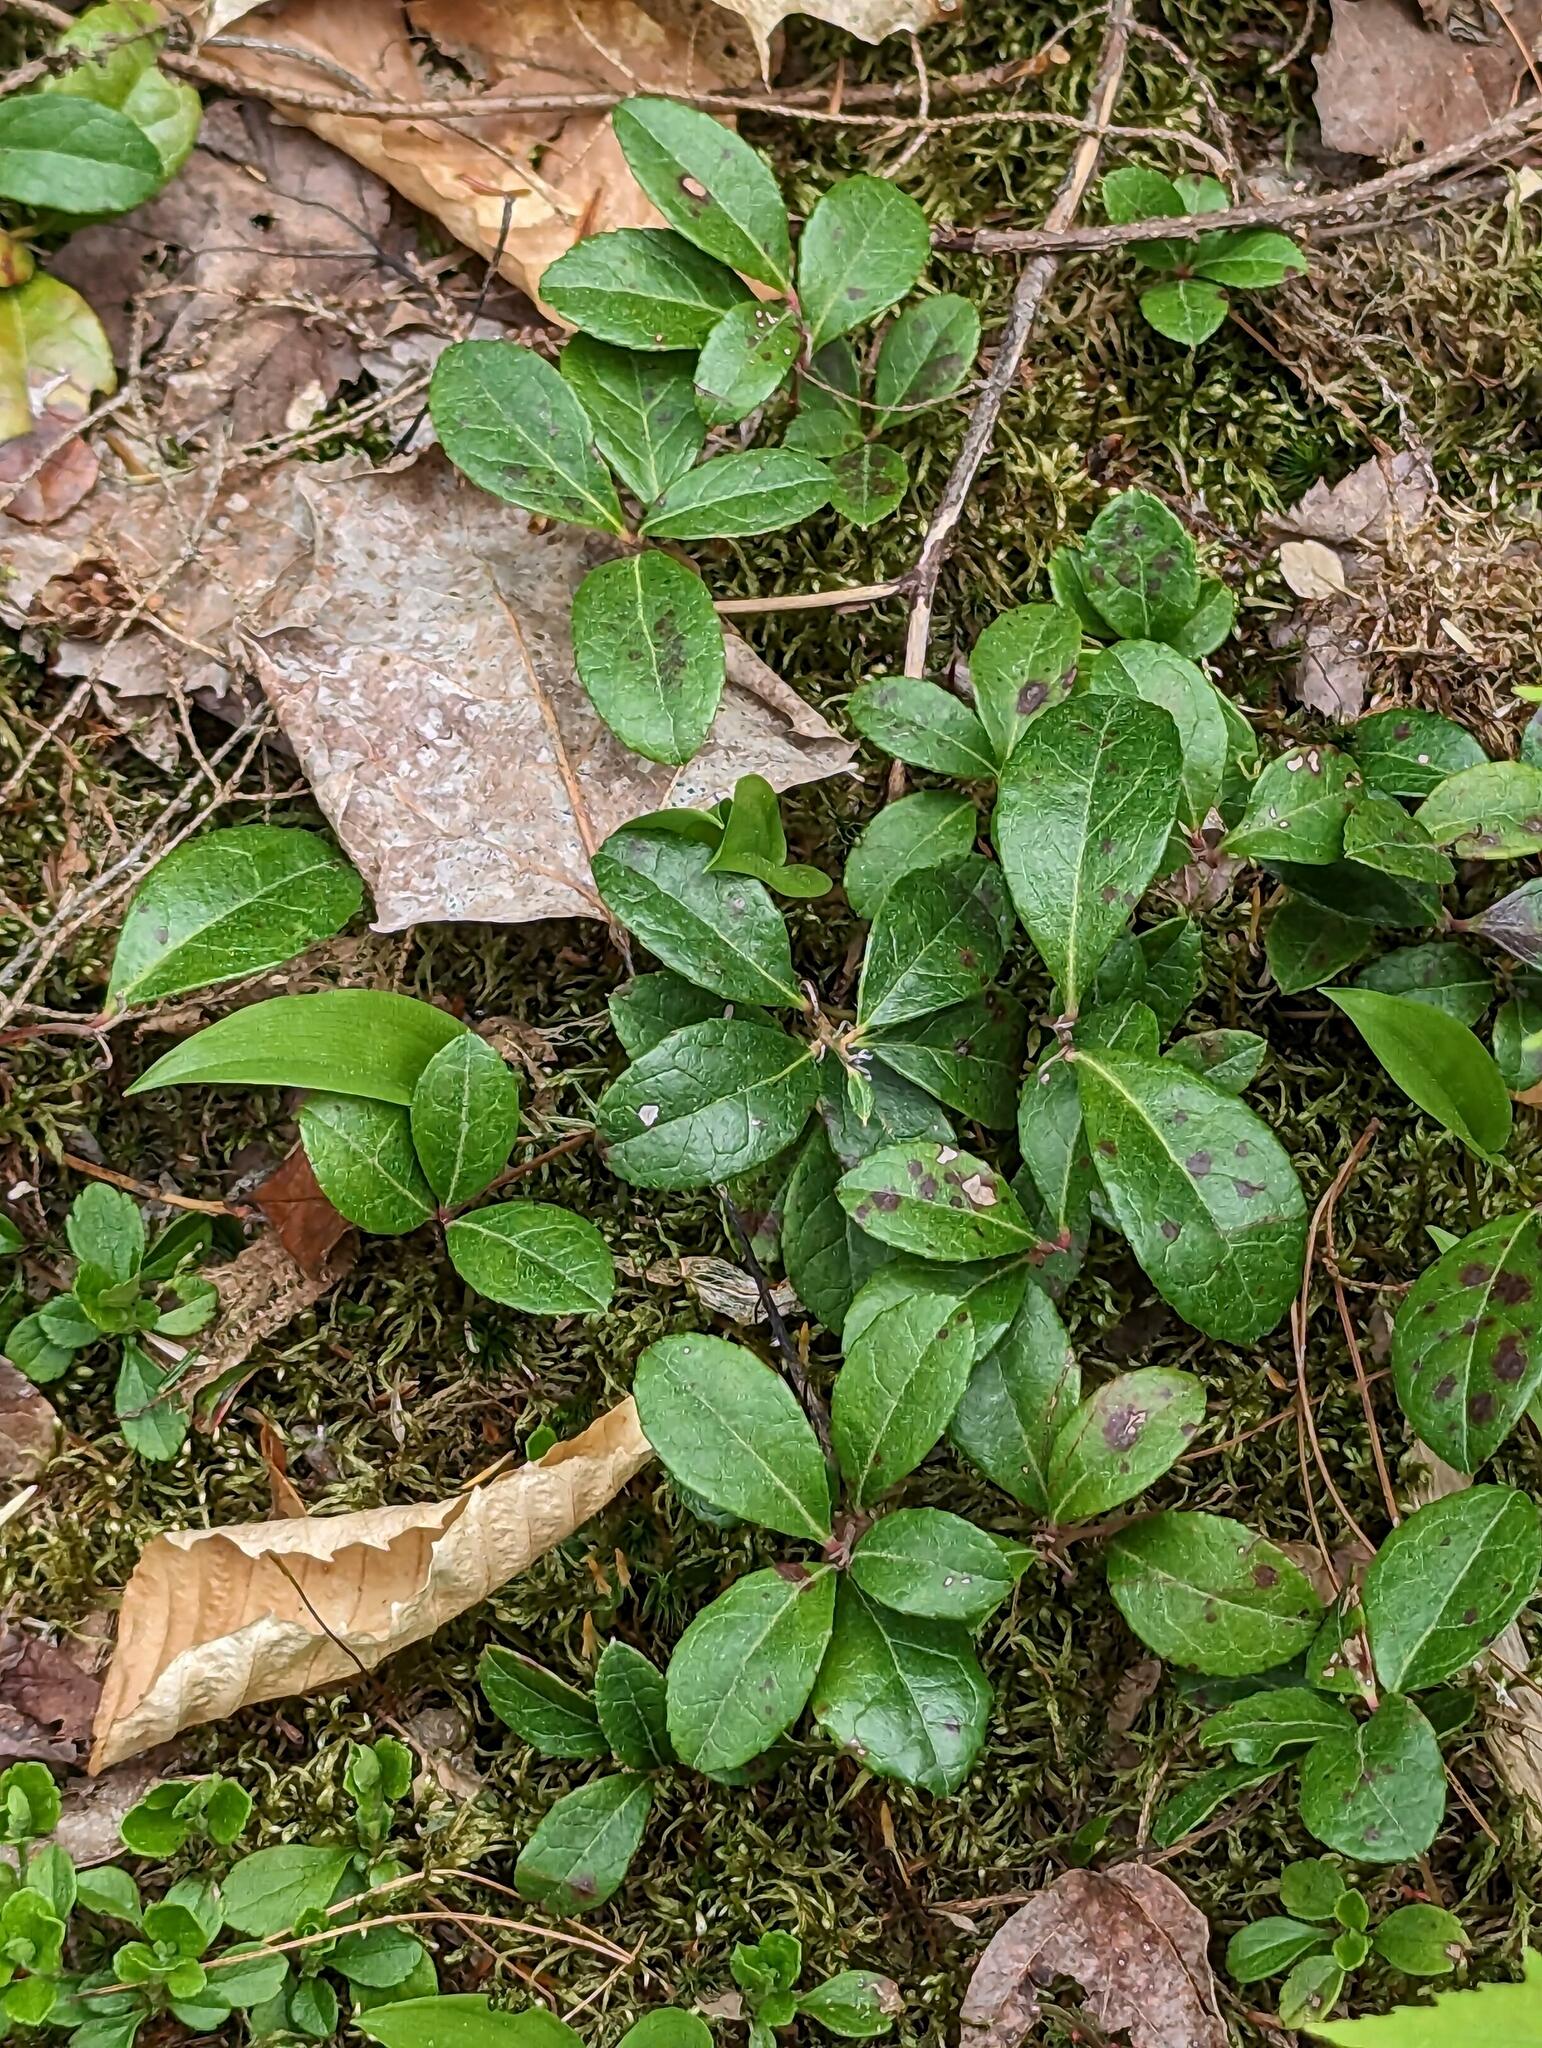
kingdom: Plantae
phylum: Tracheophyta
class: Magnoliopsida
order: Ericales
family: Ericaceae
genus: Gaultheria
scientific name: Gaultheria procumbens
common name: Checkerberry
